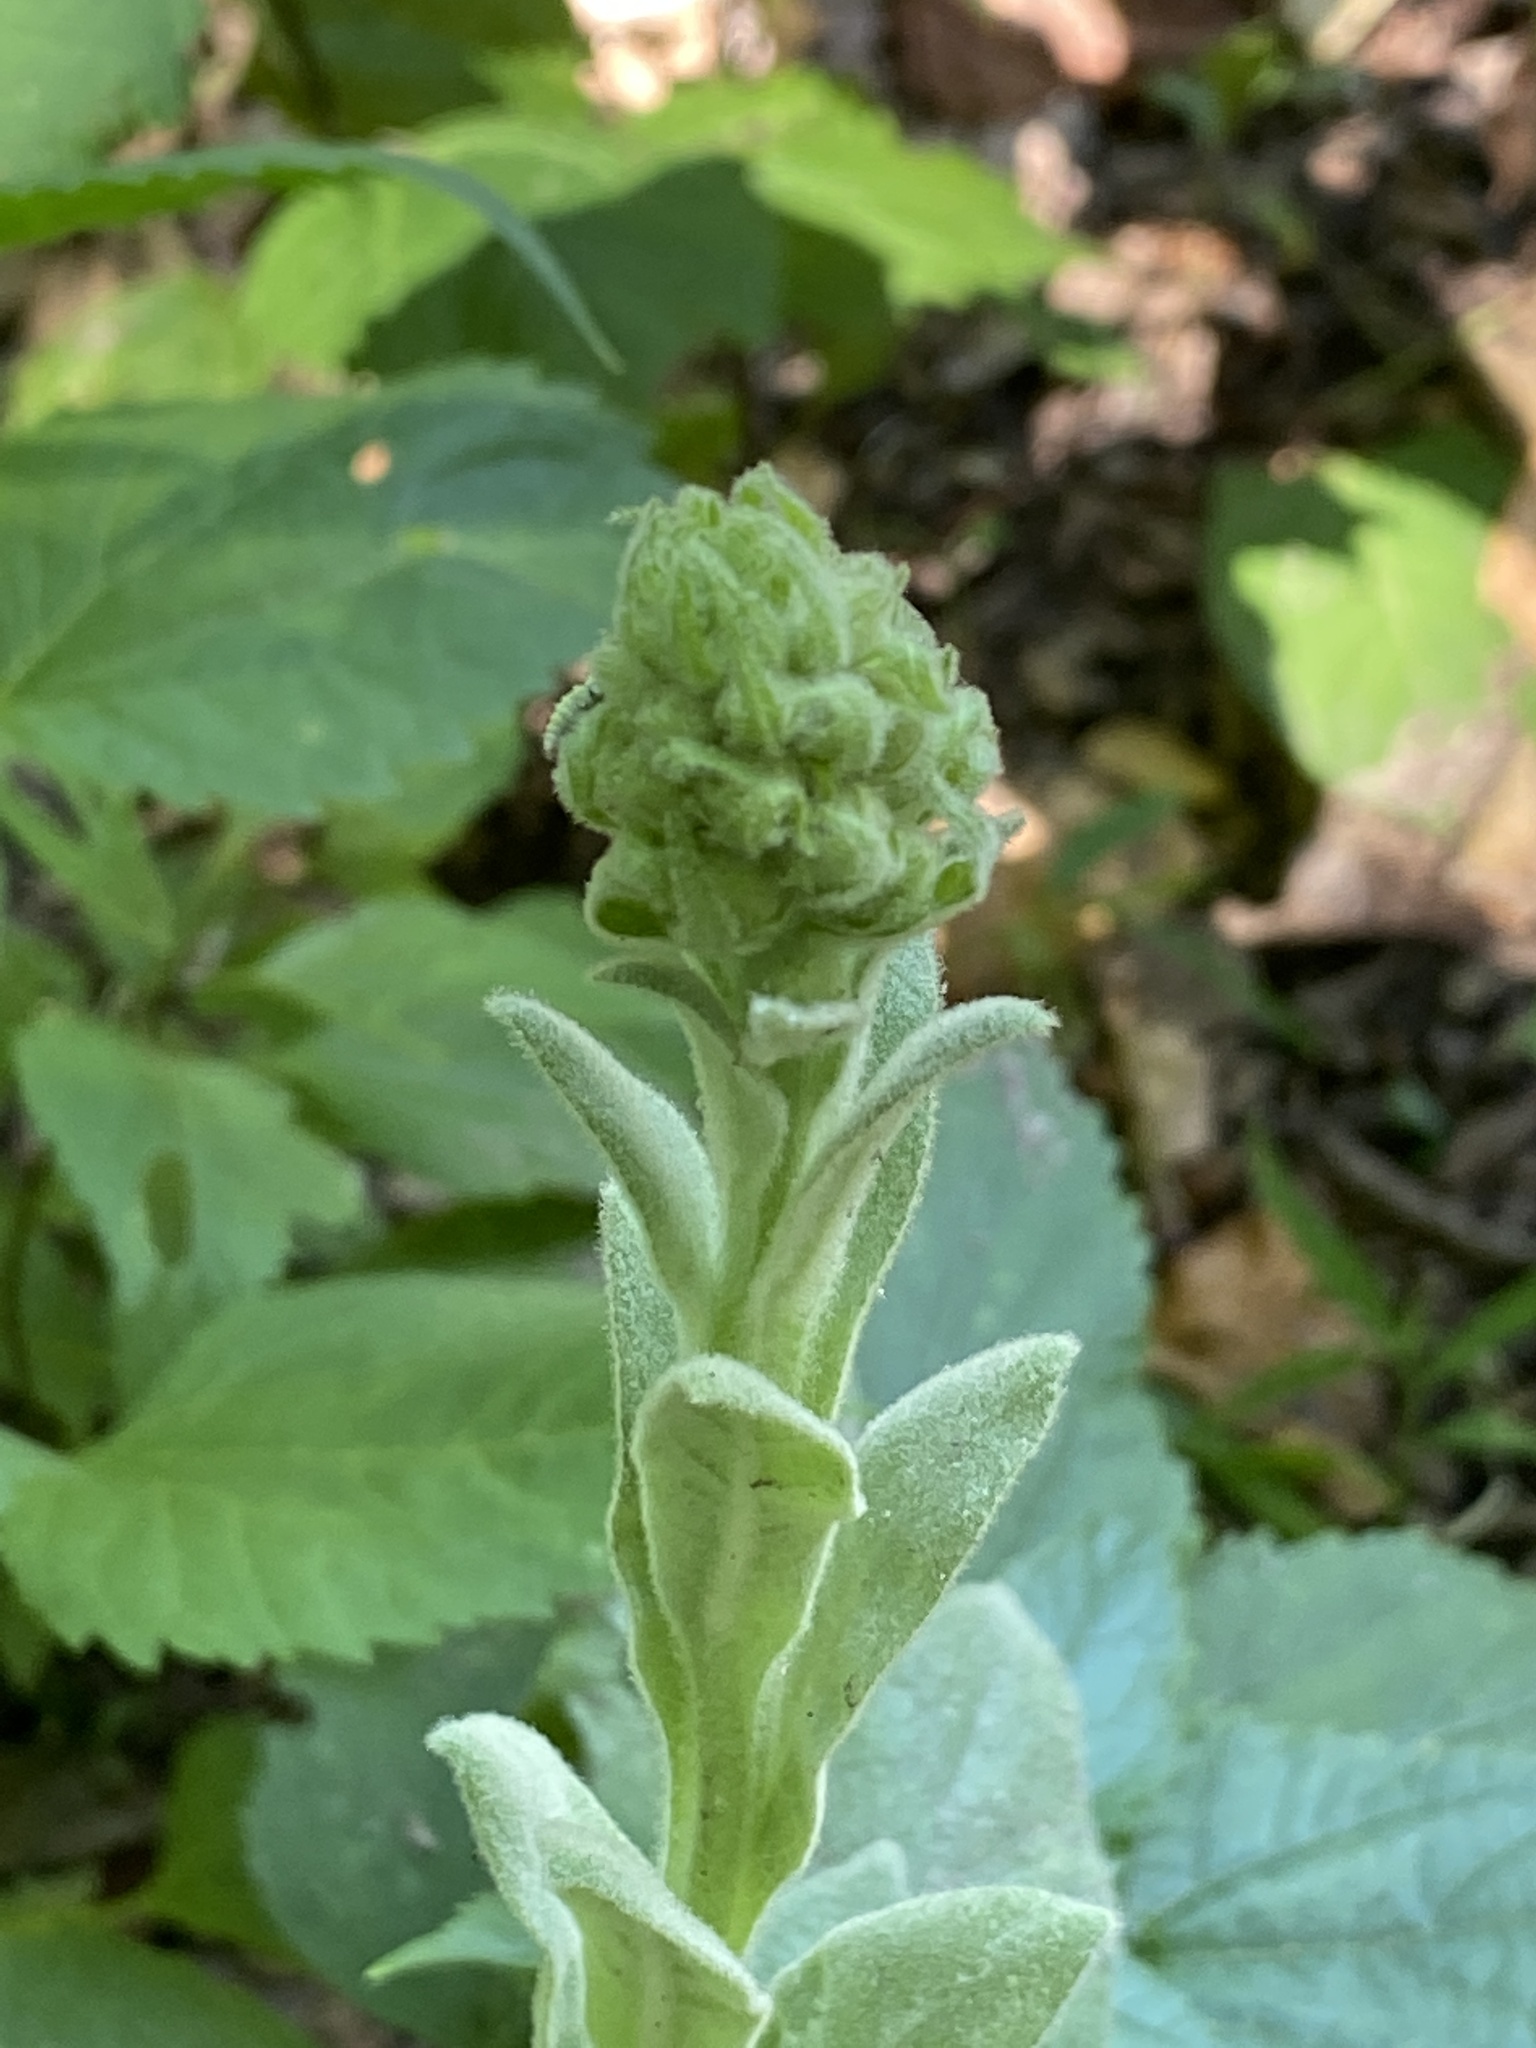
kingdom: Plantae
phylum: Tracheophyta
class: Magnoliopsida
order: Lamiales
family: Scrophulariaceae
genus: Verbascum
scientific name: Verbascum thapsus
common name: Common mullein
